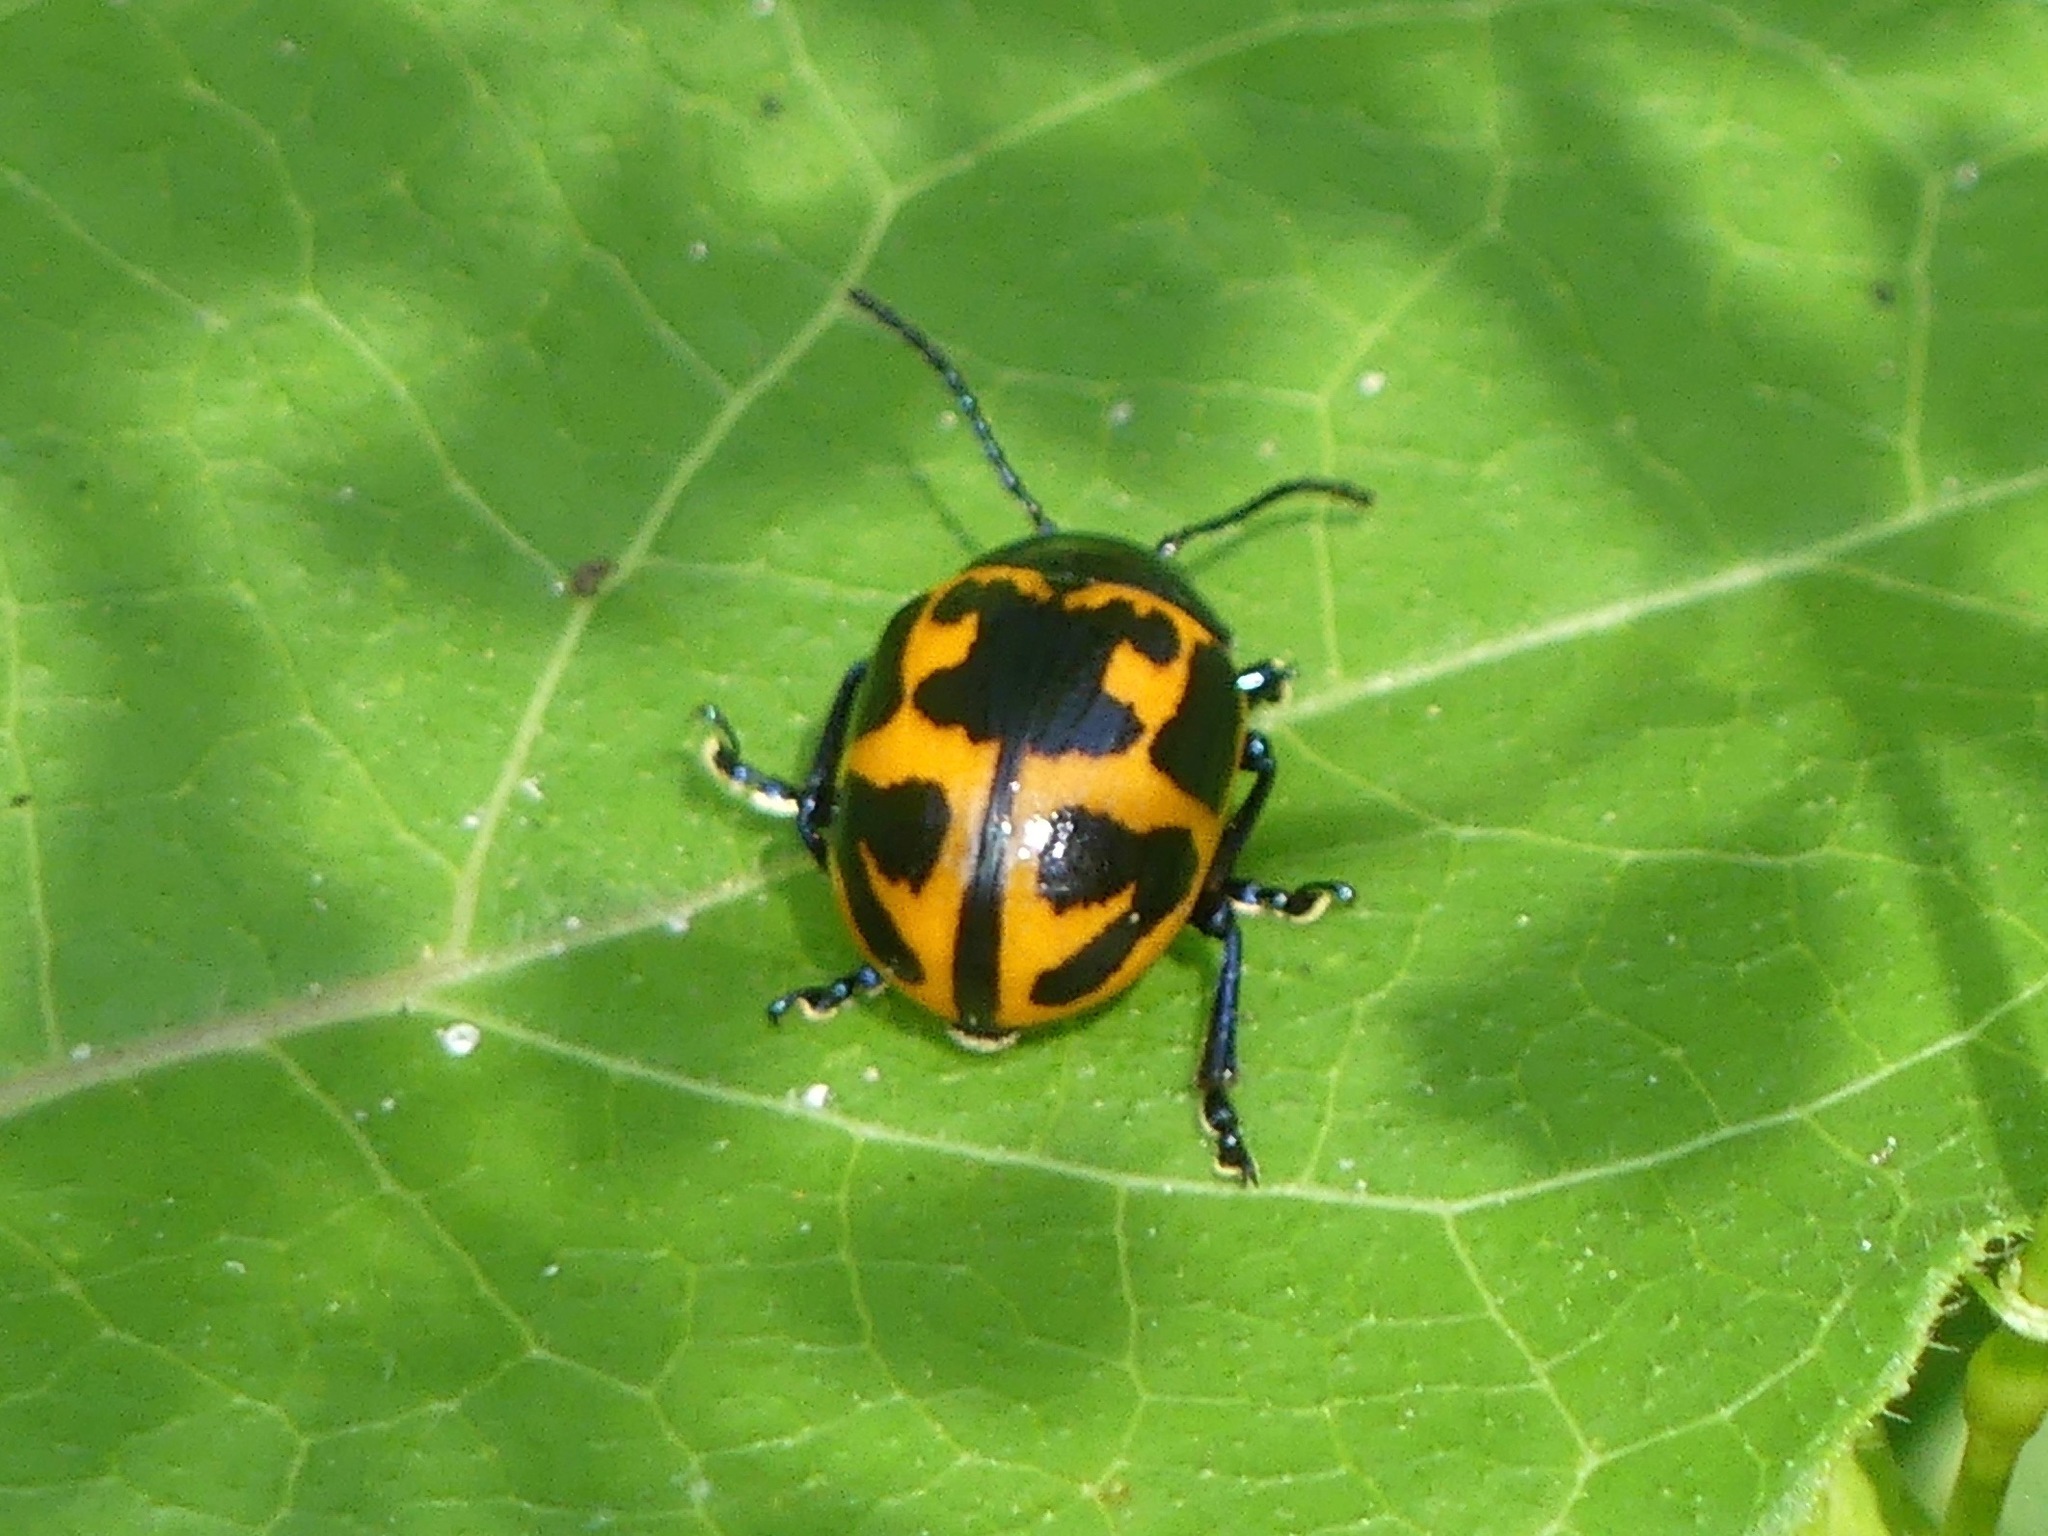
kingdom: Animalia
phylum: Arthropoda
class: Insecta
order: Coleoptera
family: Chrysomelidae
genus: Labidomera
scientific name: Labidomera clivicollis
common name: Swamp milkweed leaf beetle
